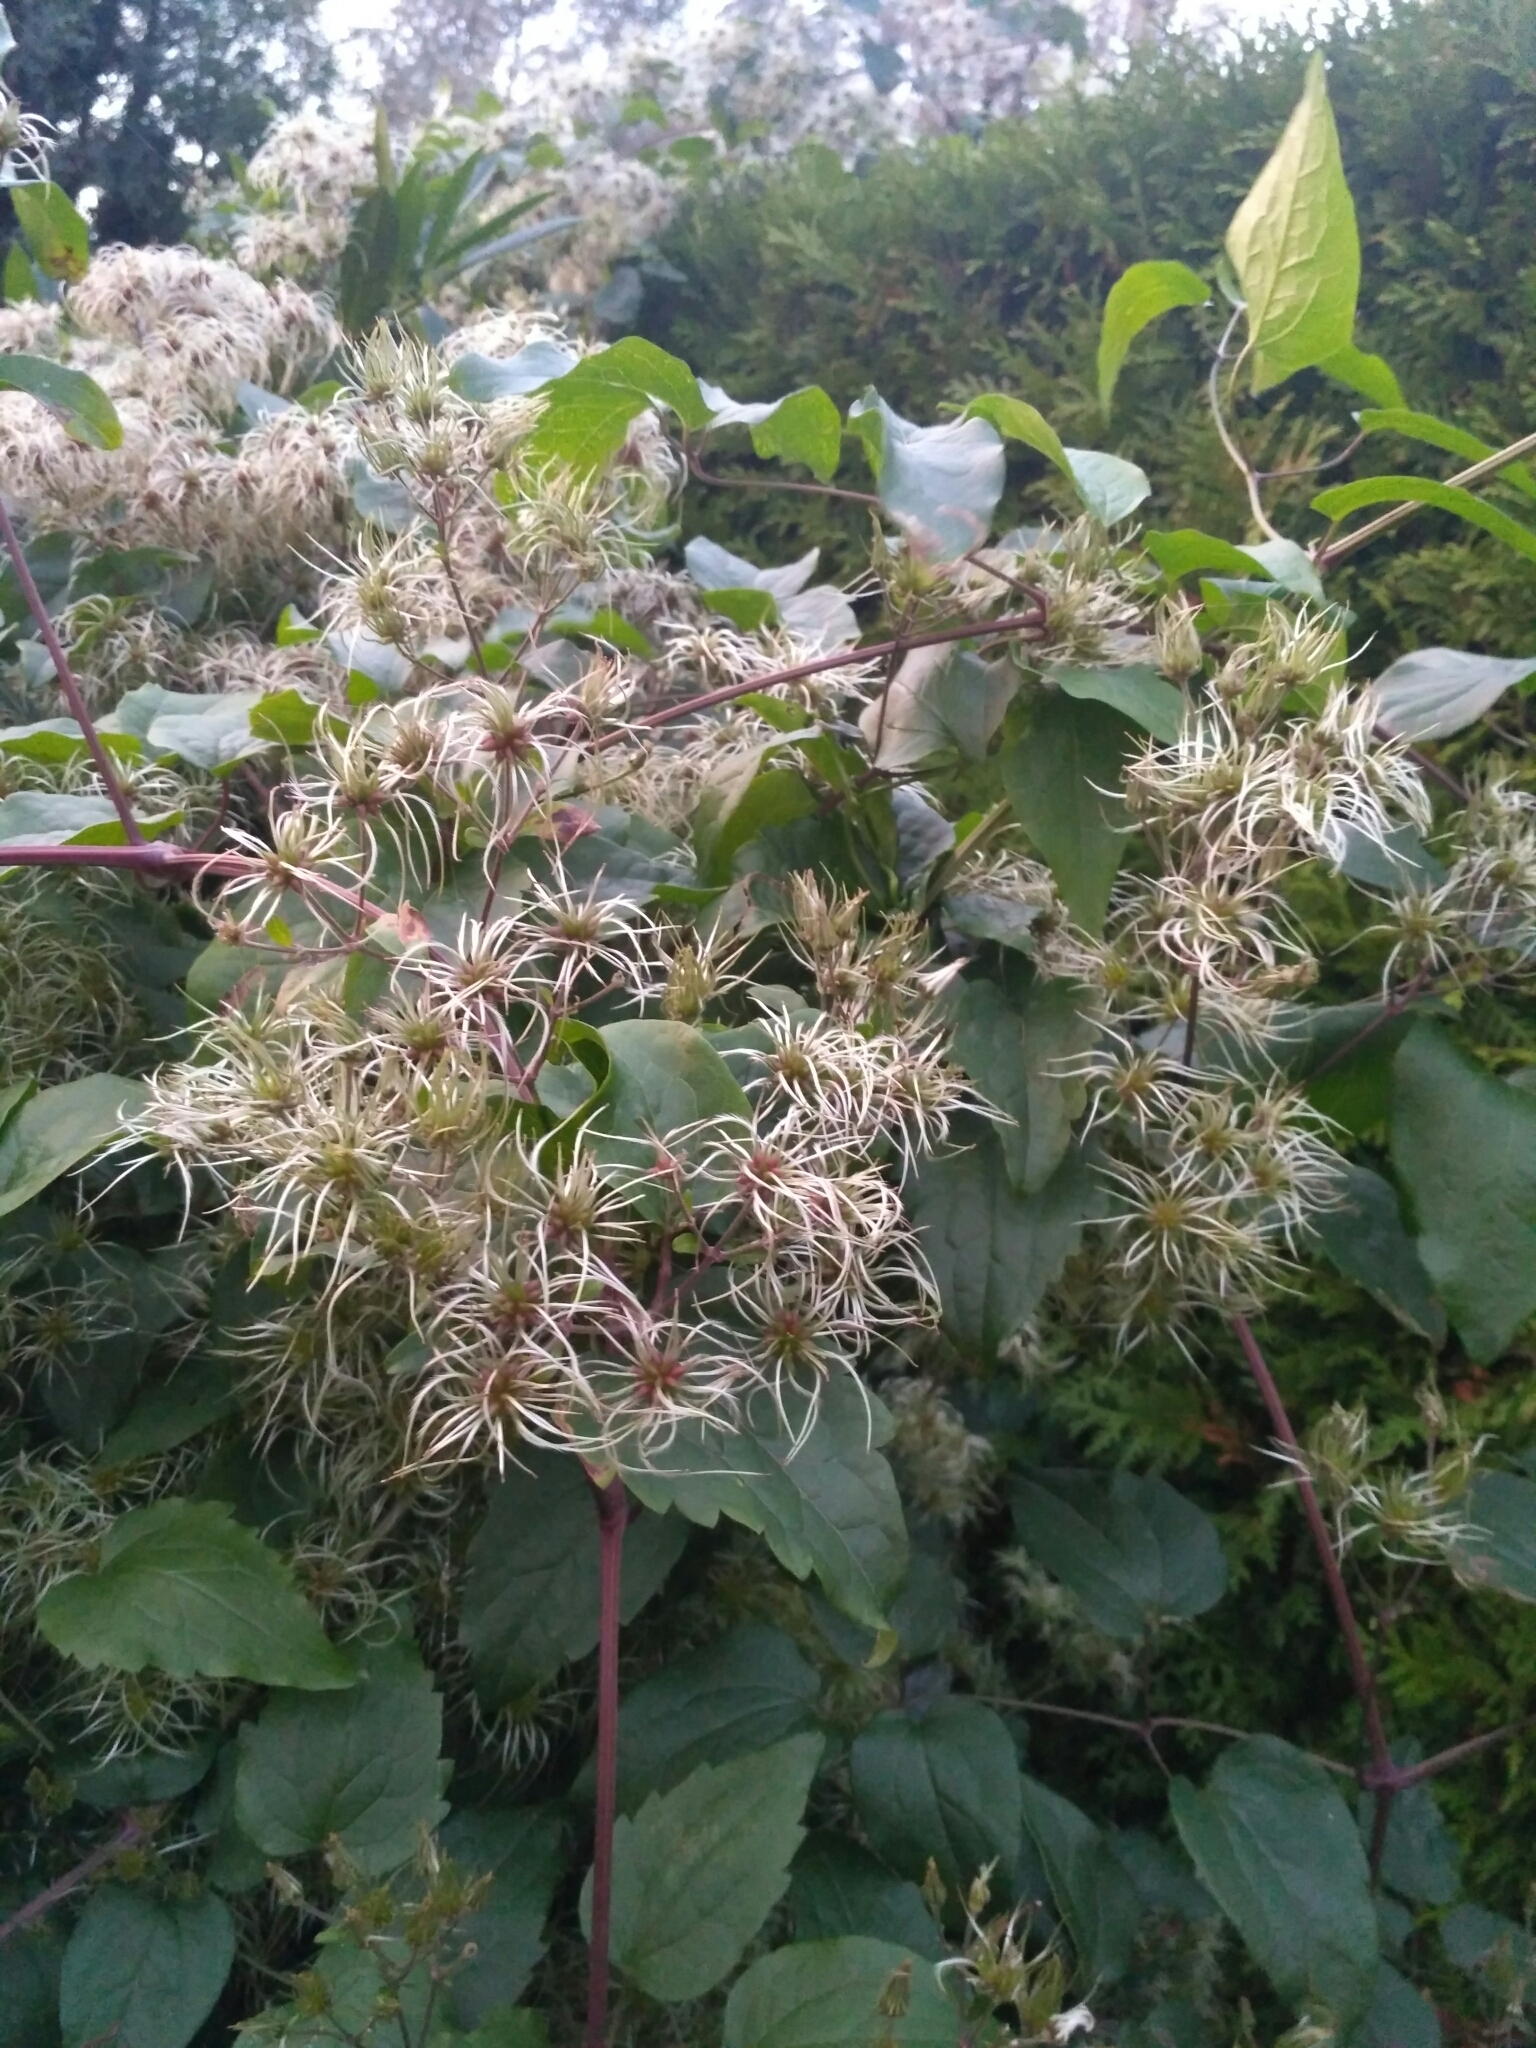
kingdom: Plantae
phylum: Tracheophyta
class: Magnoliopsida
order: Ranunculales
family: Ranunculaceae
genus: Clematis
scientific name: Clematis vitalba
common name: Evergreen clematis
